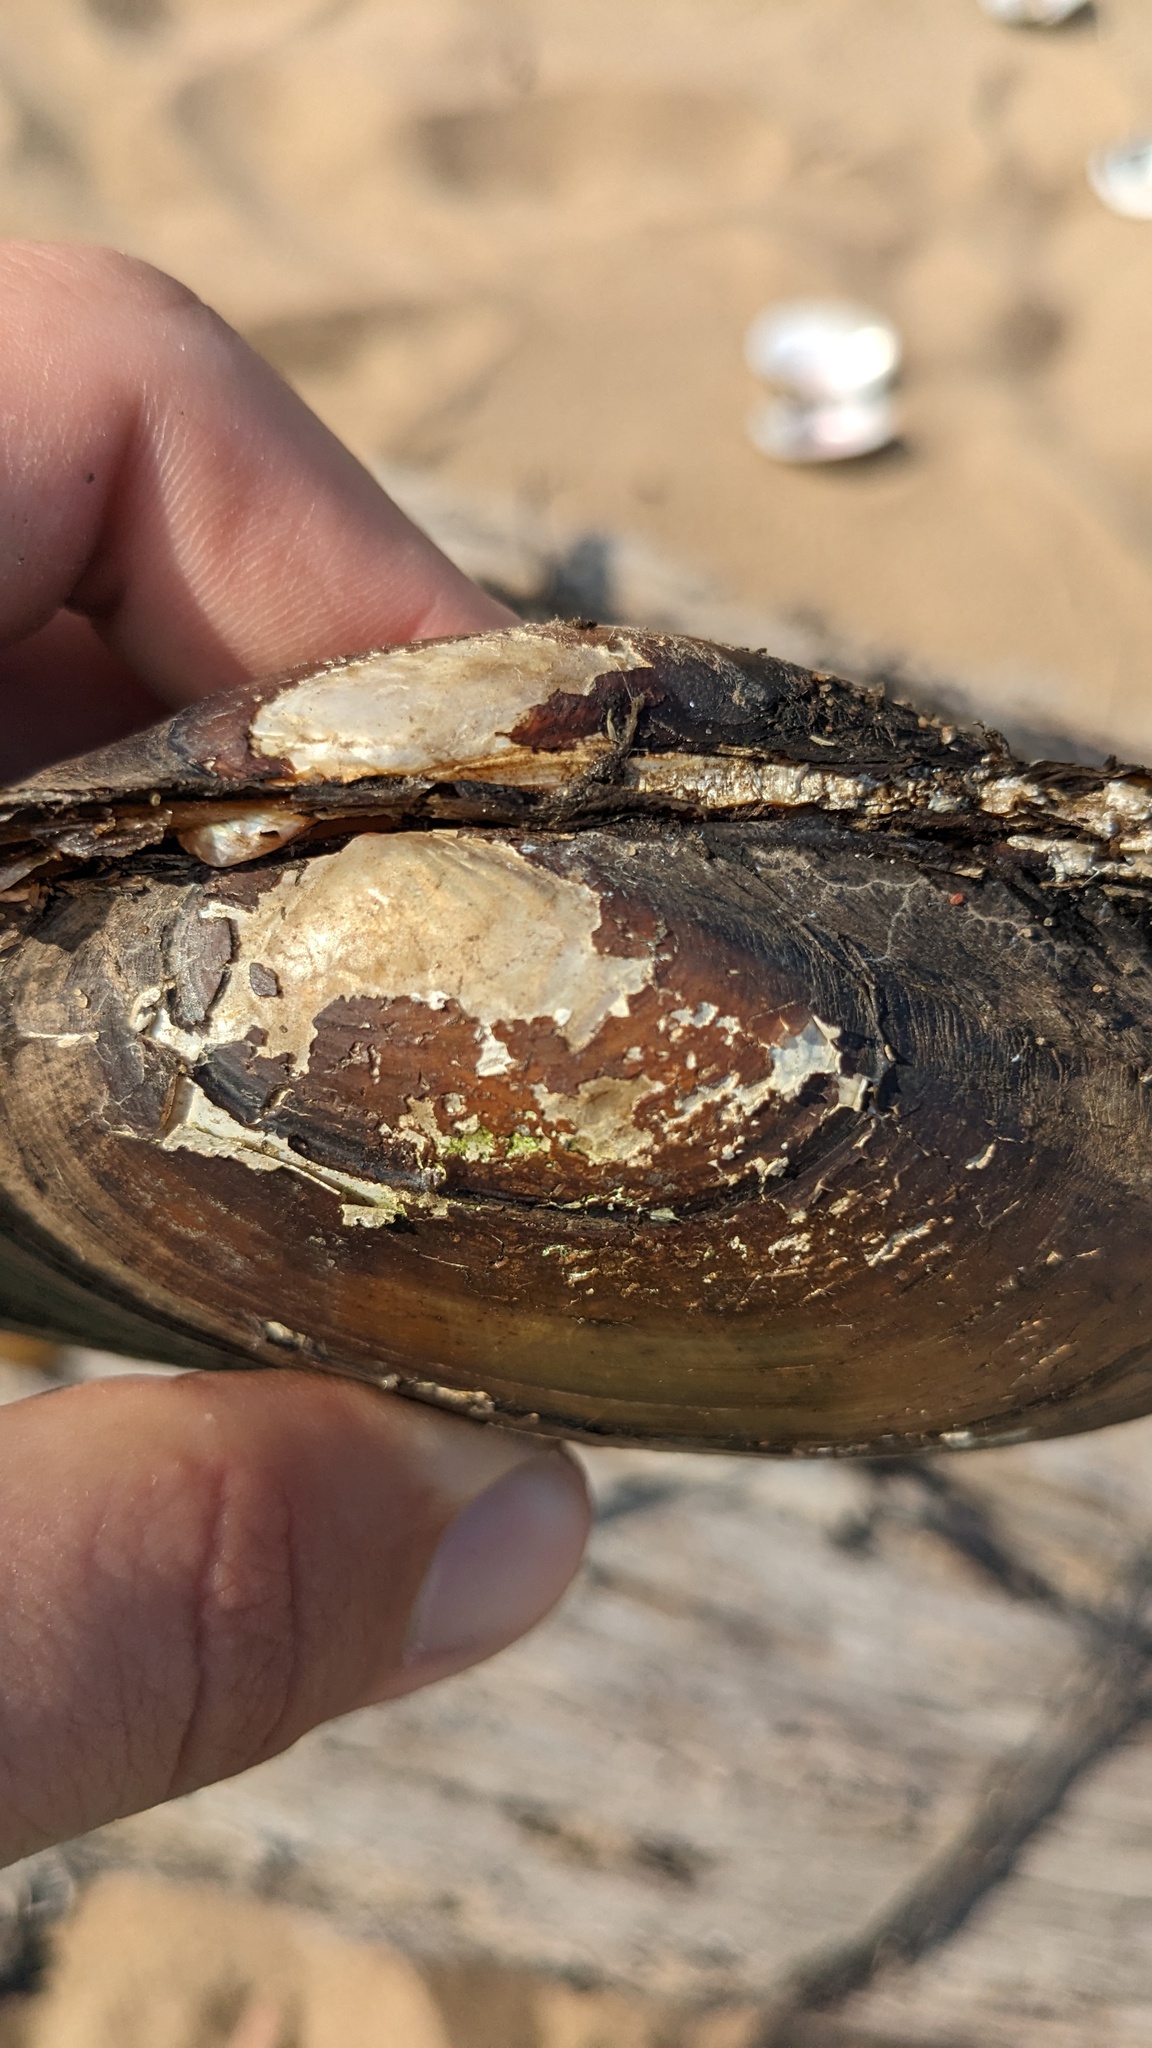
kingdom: Animalia
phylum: Mollusca
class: Bivalvia
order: Unionida
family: Unionidae
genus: Potamilus
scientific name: Potamilus fragilis
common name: Fragile papershell
